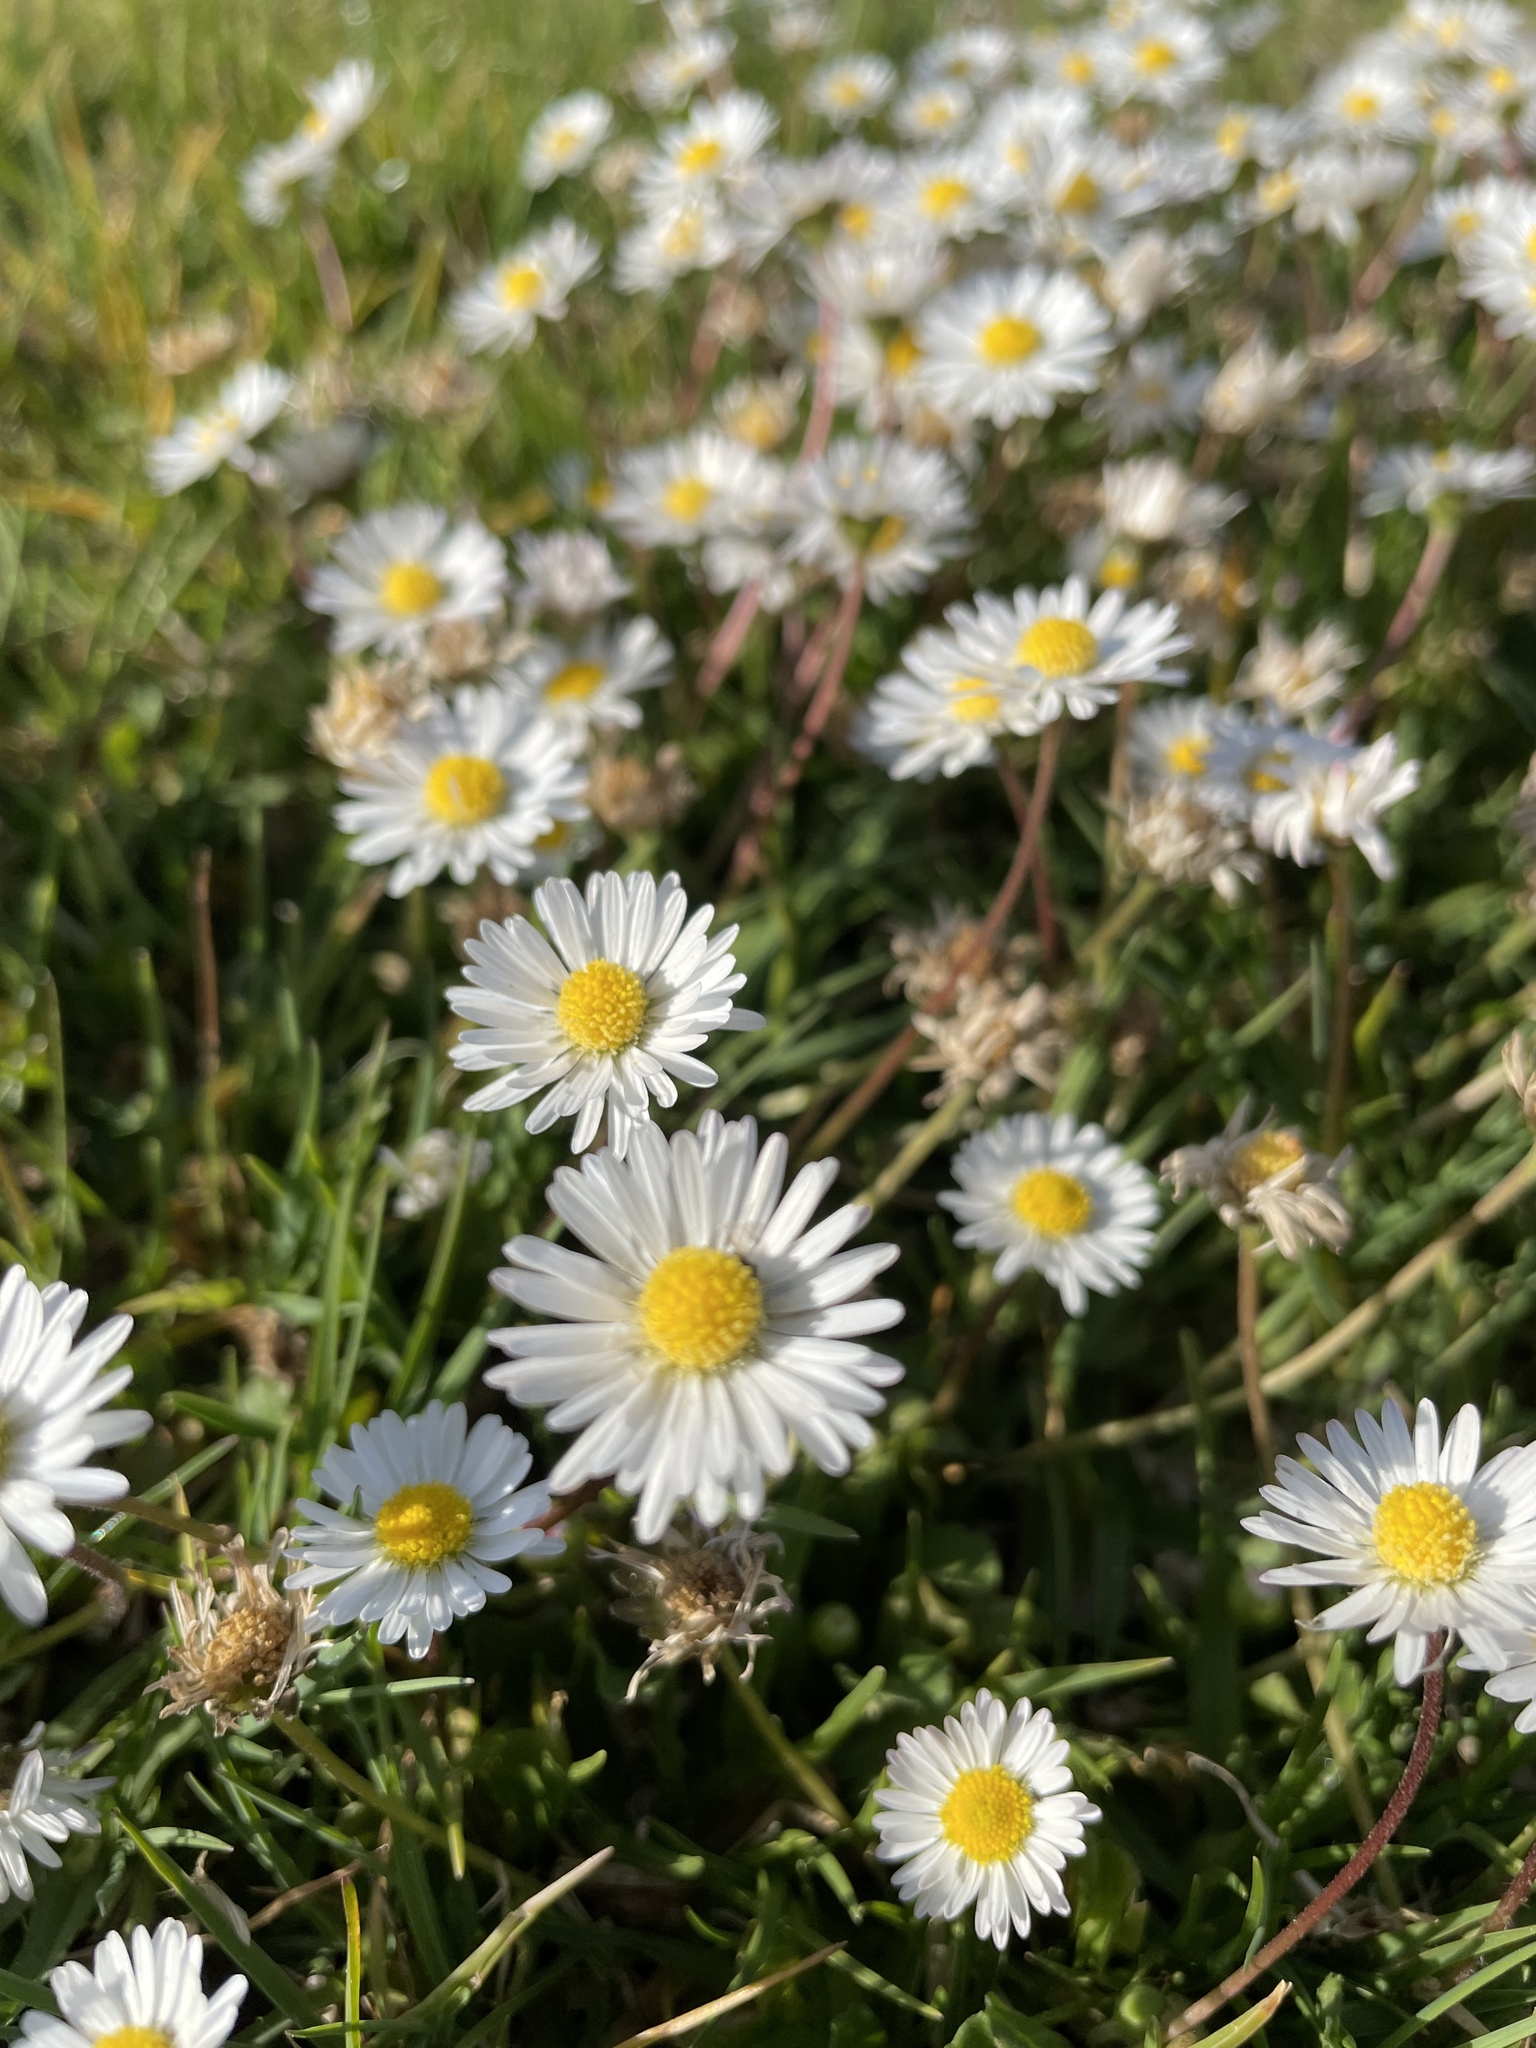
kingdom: Plantae
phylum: Tracheophyta
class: Magnoliopsida
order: Asterales
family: Asteraceae
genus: Bellis
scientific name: Bellis perennis
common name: Lawndaisy
